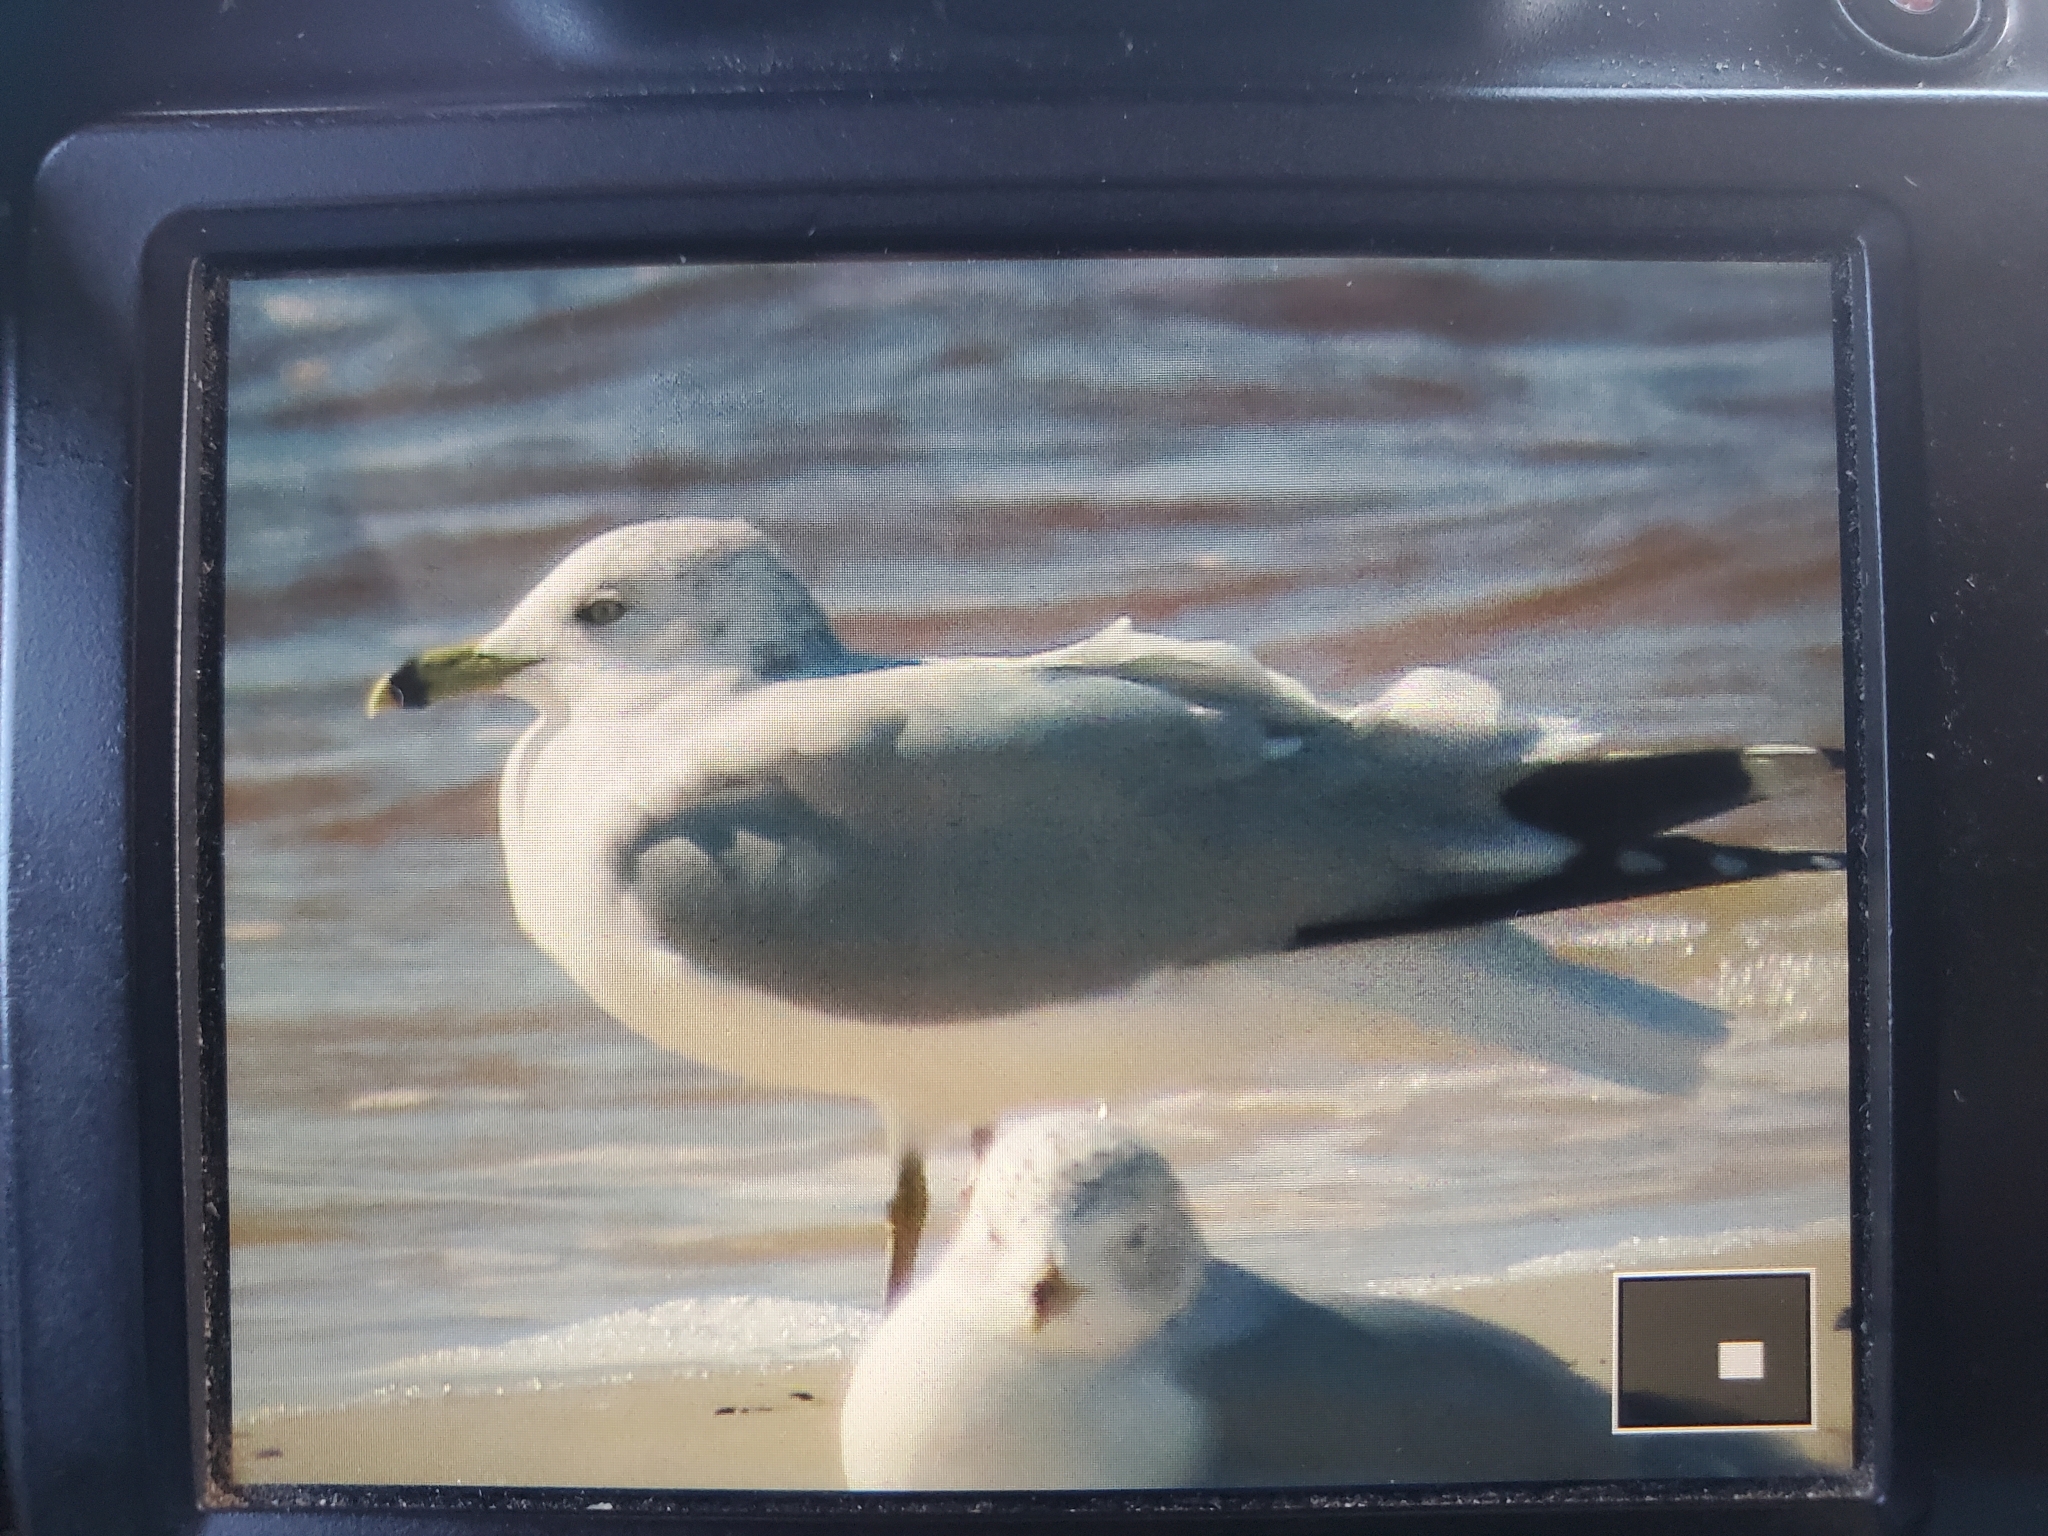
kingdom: Animalia
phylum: Chordata
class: Aves
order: Charadriiformes
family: Laridae
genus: Larus
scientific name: Larus delawarensis
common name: Ring-billed gull
